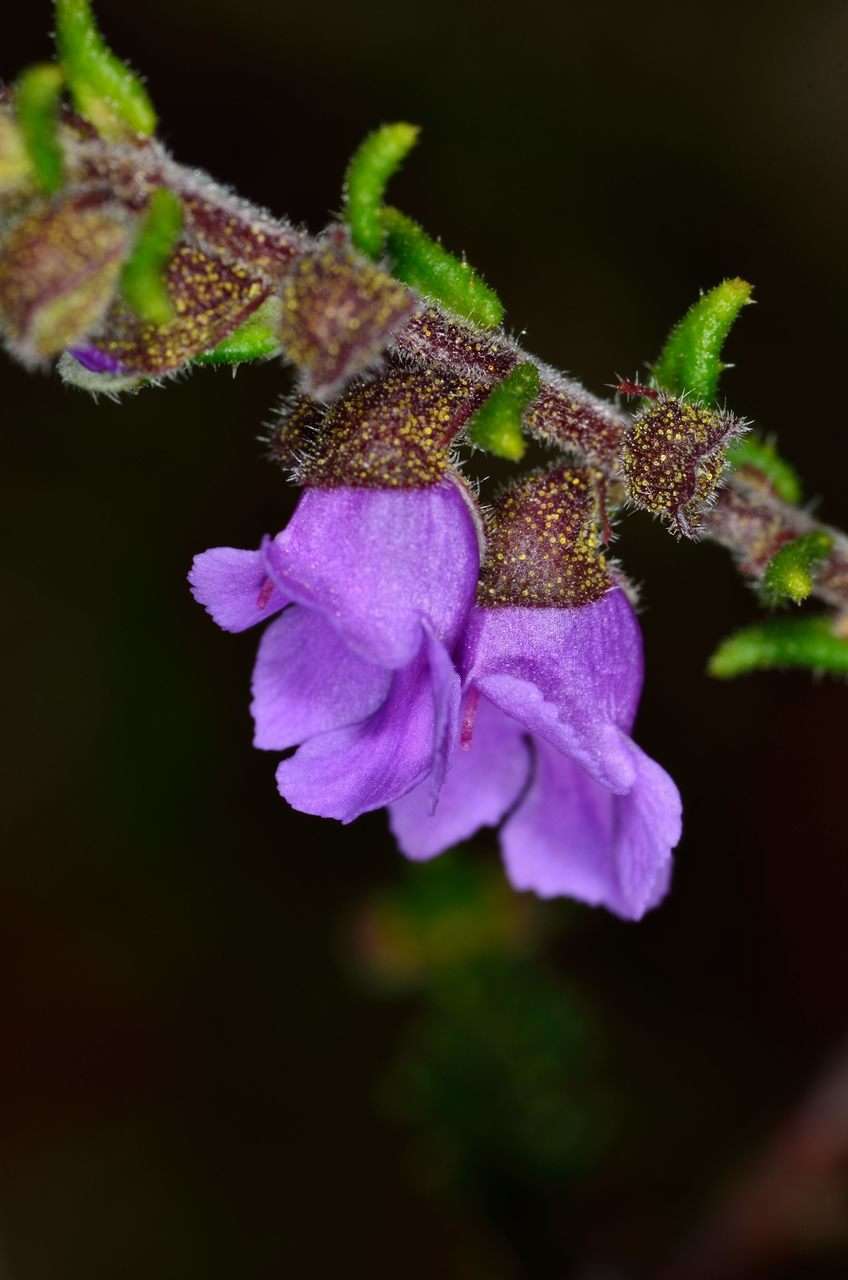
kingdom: Plantae
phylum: Tracheophyta
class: Magnoliopsida
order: Lamiales
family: Lamiaceae
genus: Prostanthera
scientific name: Prostanthera decussata
